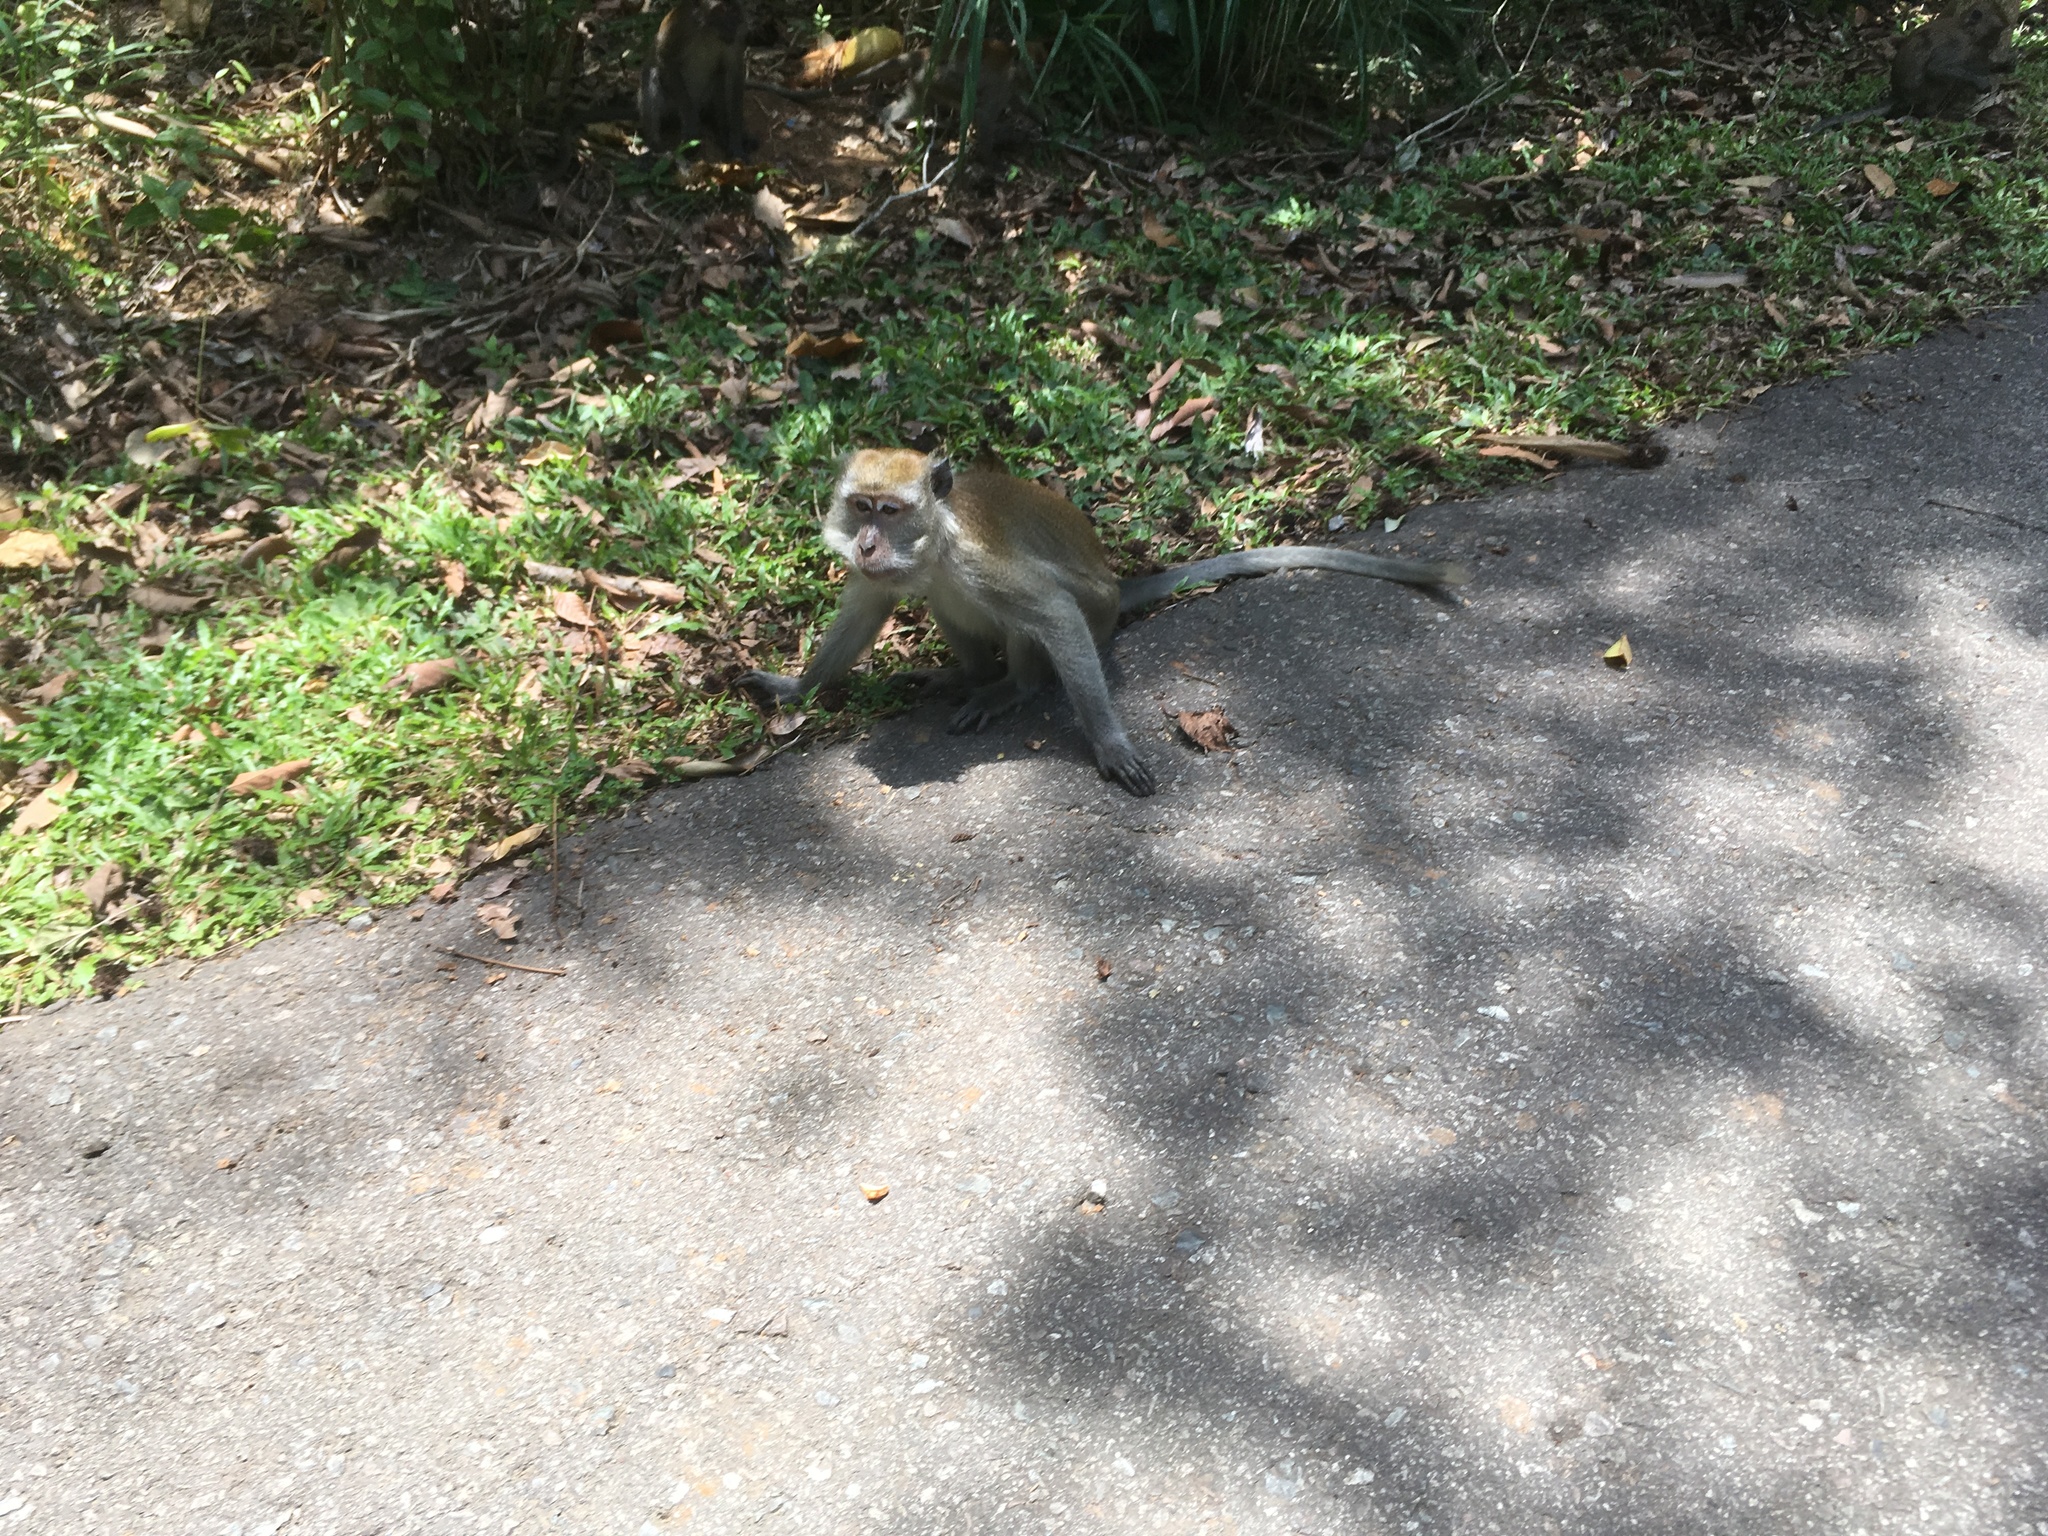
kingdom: Animalia
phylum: Chordata
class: Mammalia
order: Primates
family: Cercopithecidae
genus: Macaca
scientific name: Macaca fascicularis
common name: Crab-eating macaque
